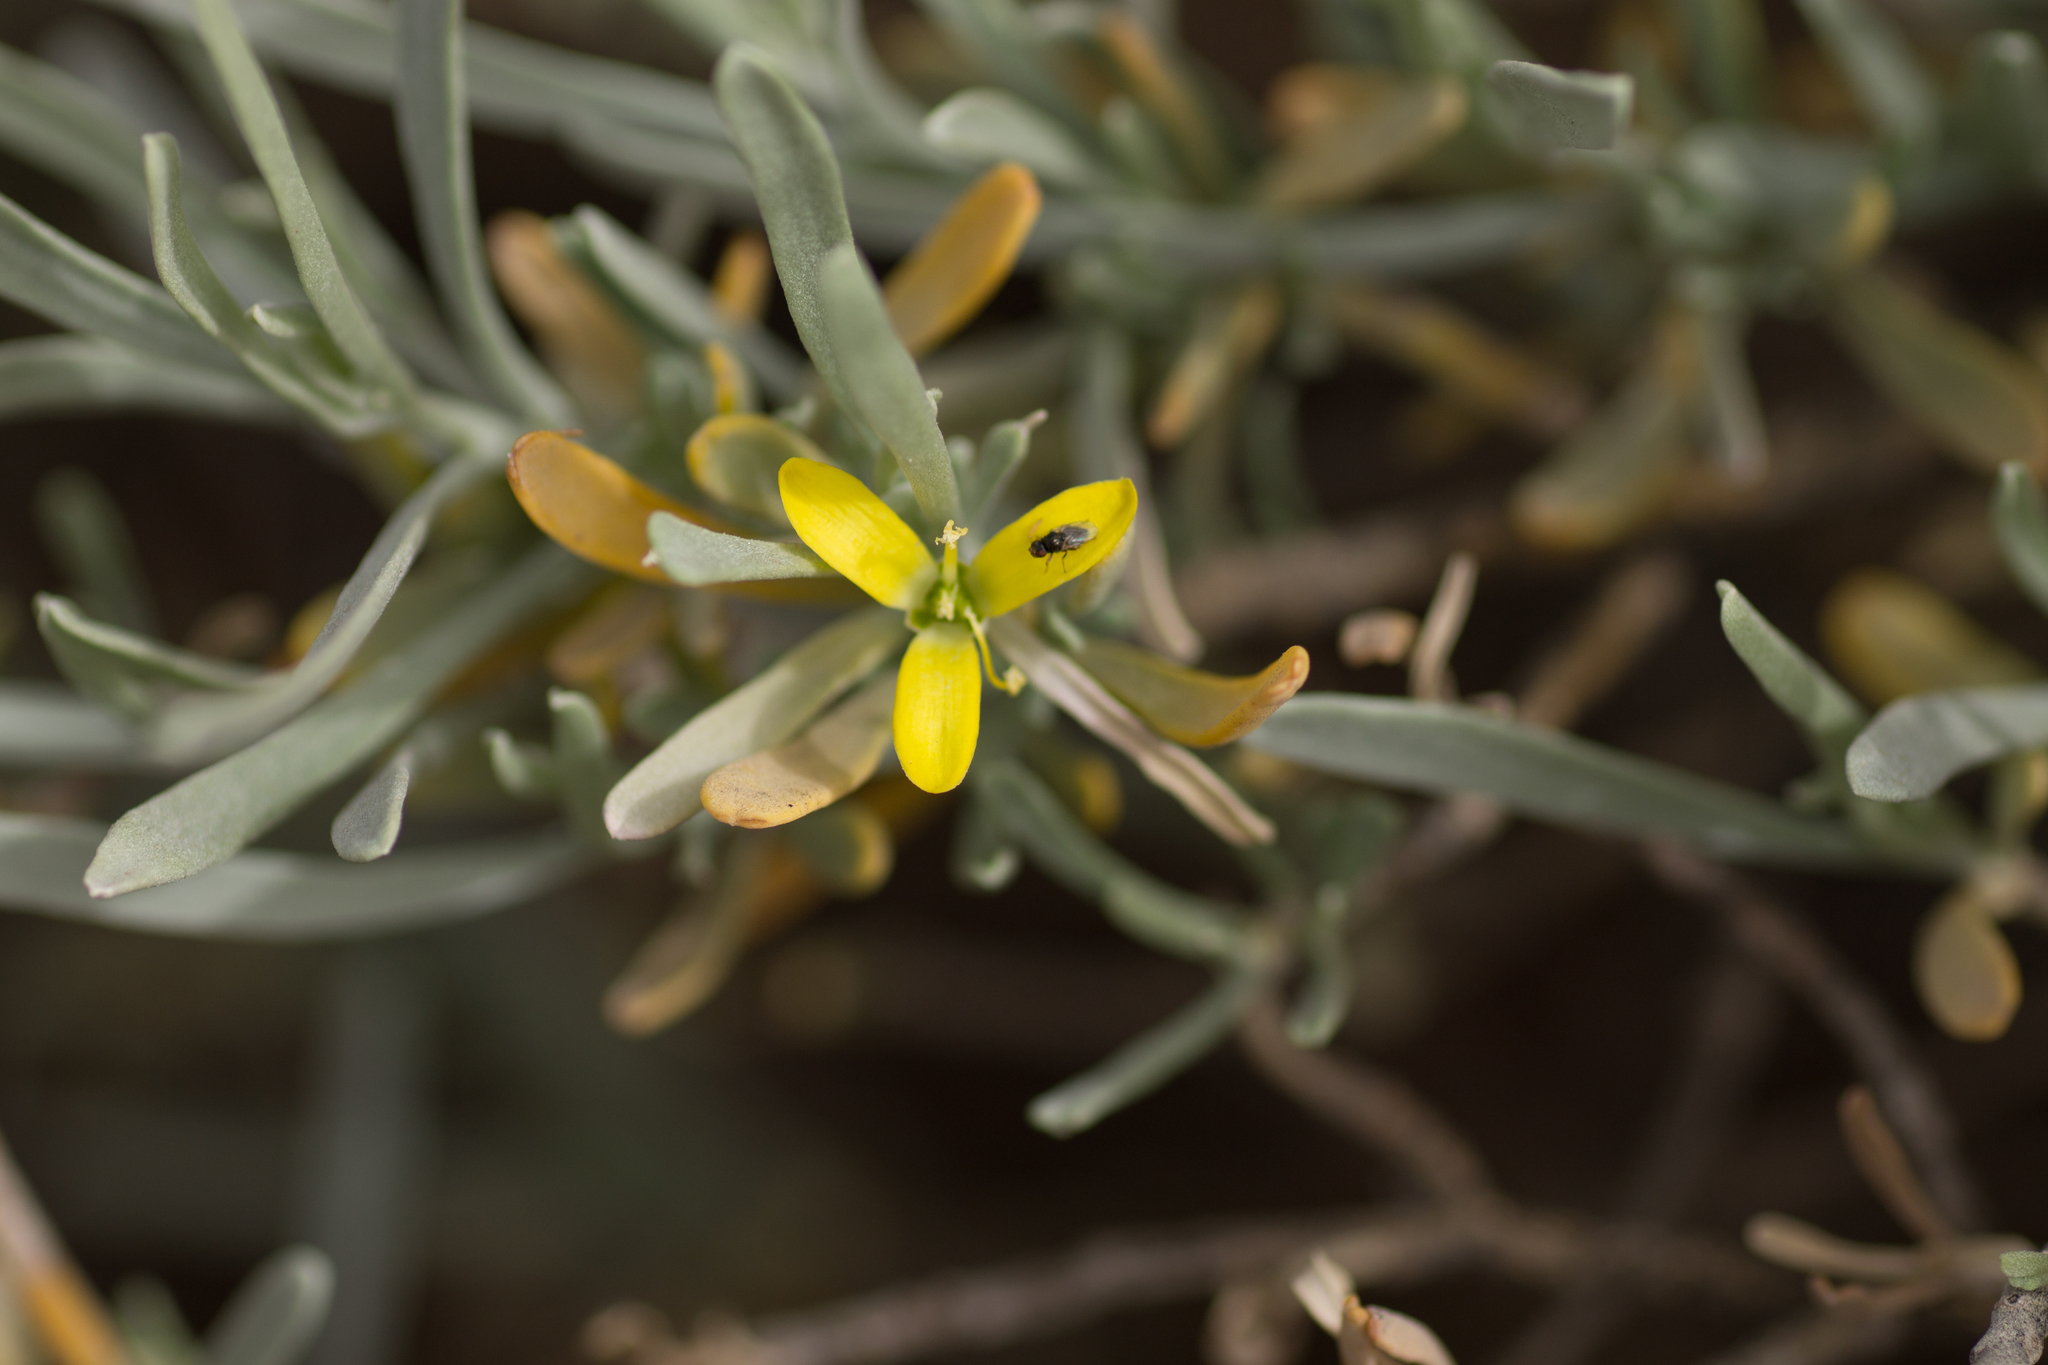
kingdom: Plantae
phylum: Tracheophyta
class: Magnoliopsida
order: Sapindales
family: Rutaceae
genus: Cneorum
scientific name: Cneorum pulverulentum
